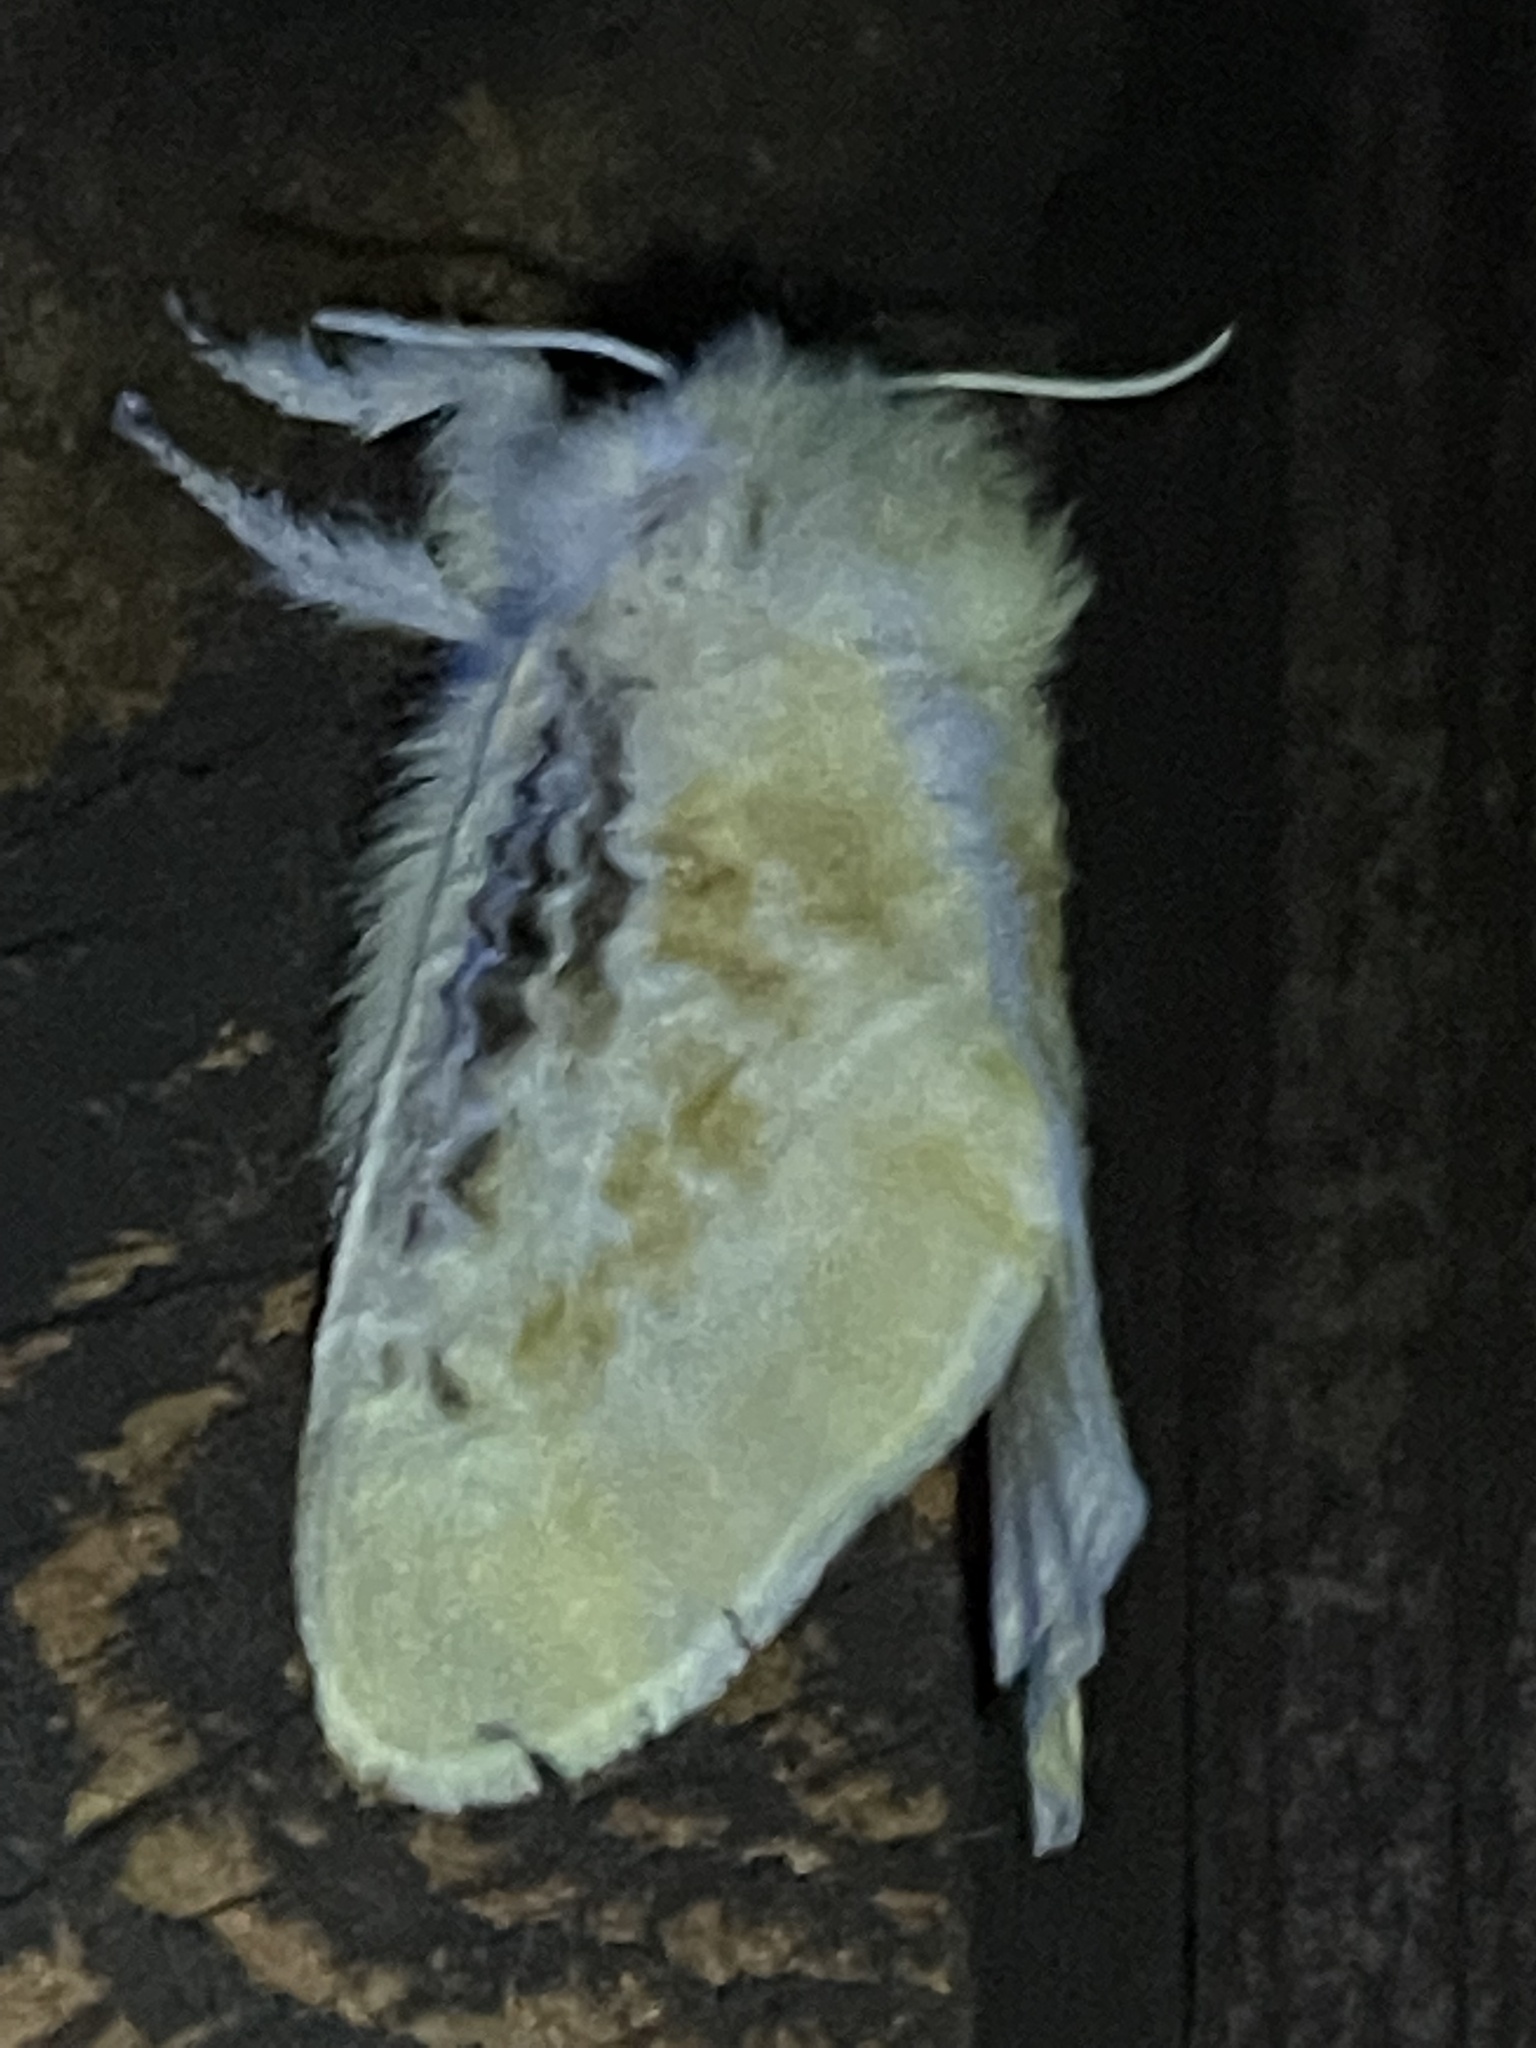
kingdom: Animalia
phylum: Arthropoda
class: Insecta
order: Lepidoptera
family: Megalopygidae
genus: Megalopyge
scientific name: Megalopyge crispata
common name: Black-waved flannel moth
